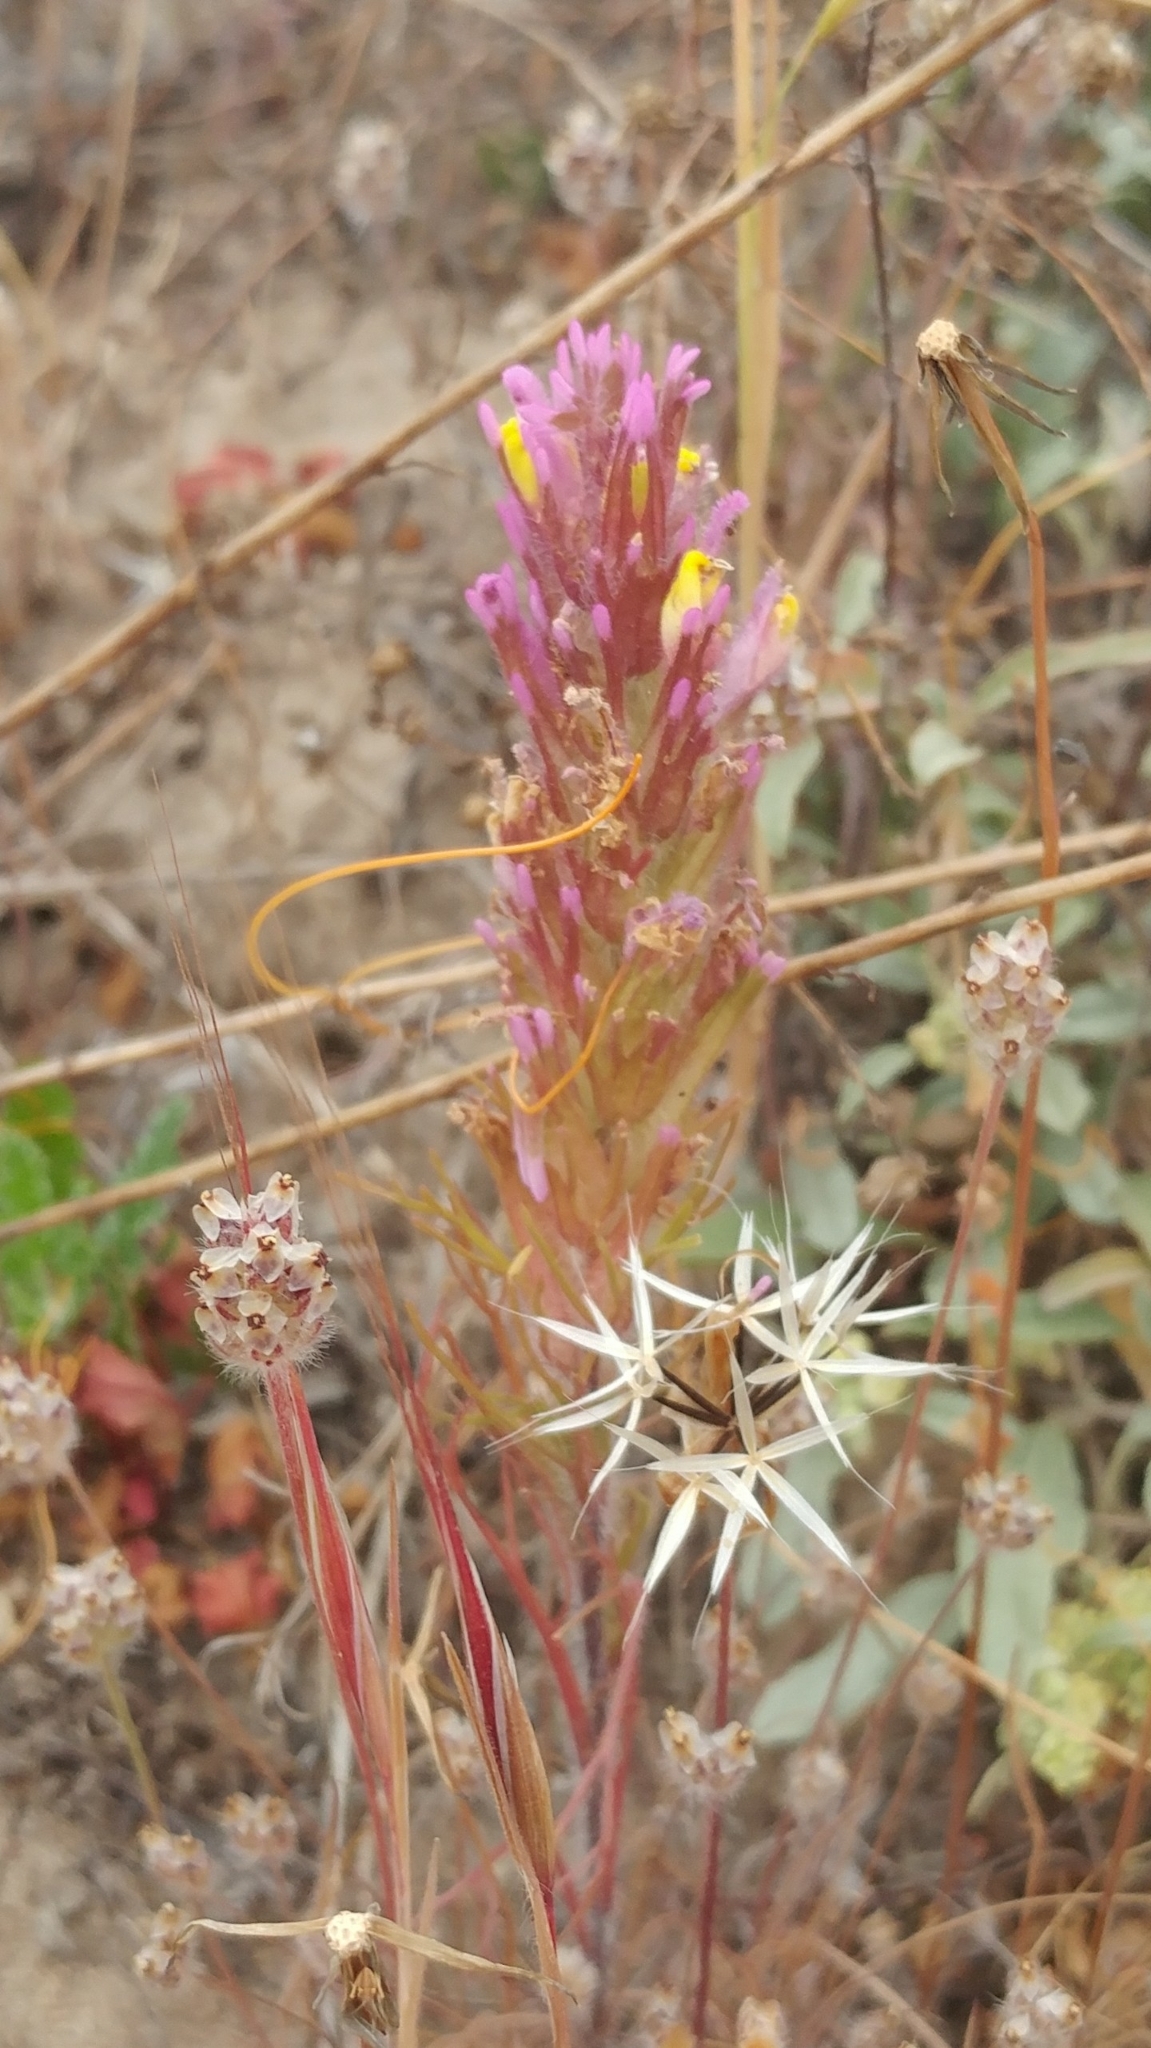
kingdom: Plantae
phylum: Tracheophyta
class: Magnoliopsida
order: Lamiales
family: Orobanchaceae
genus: Castilleja
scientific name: Castilleja exserta
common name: Purple owl-clover
